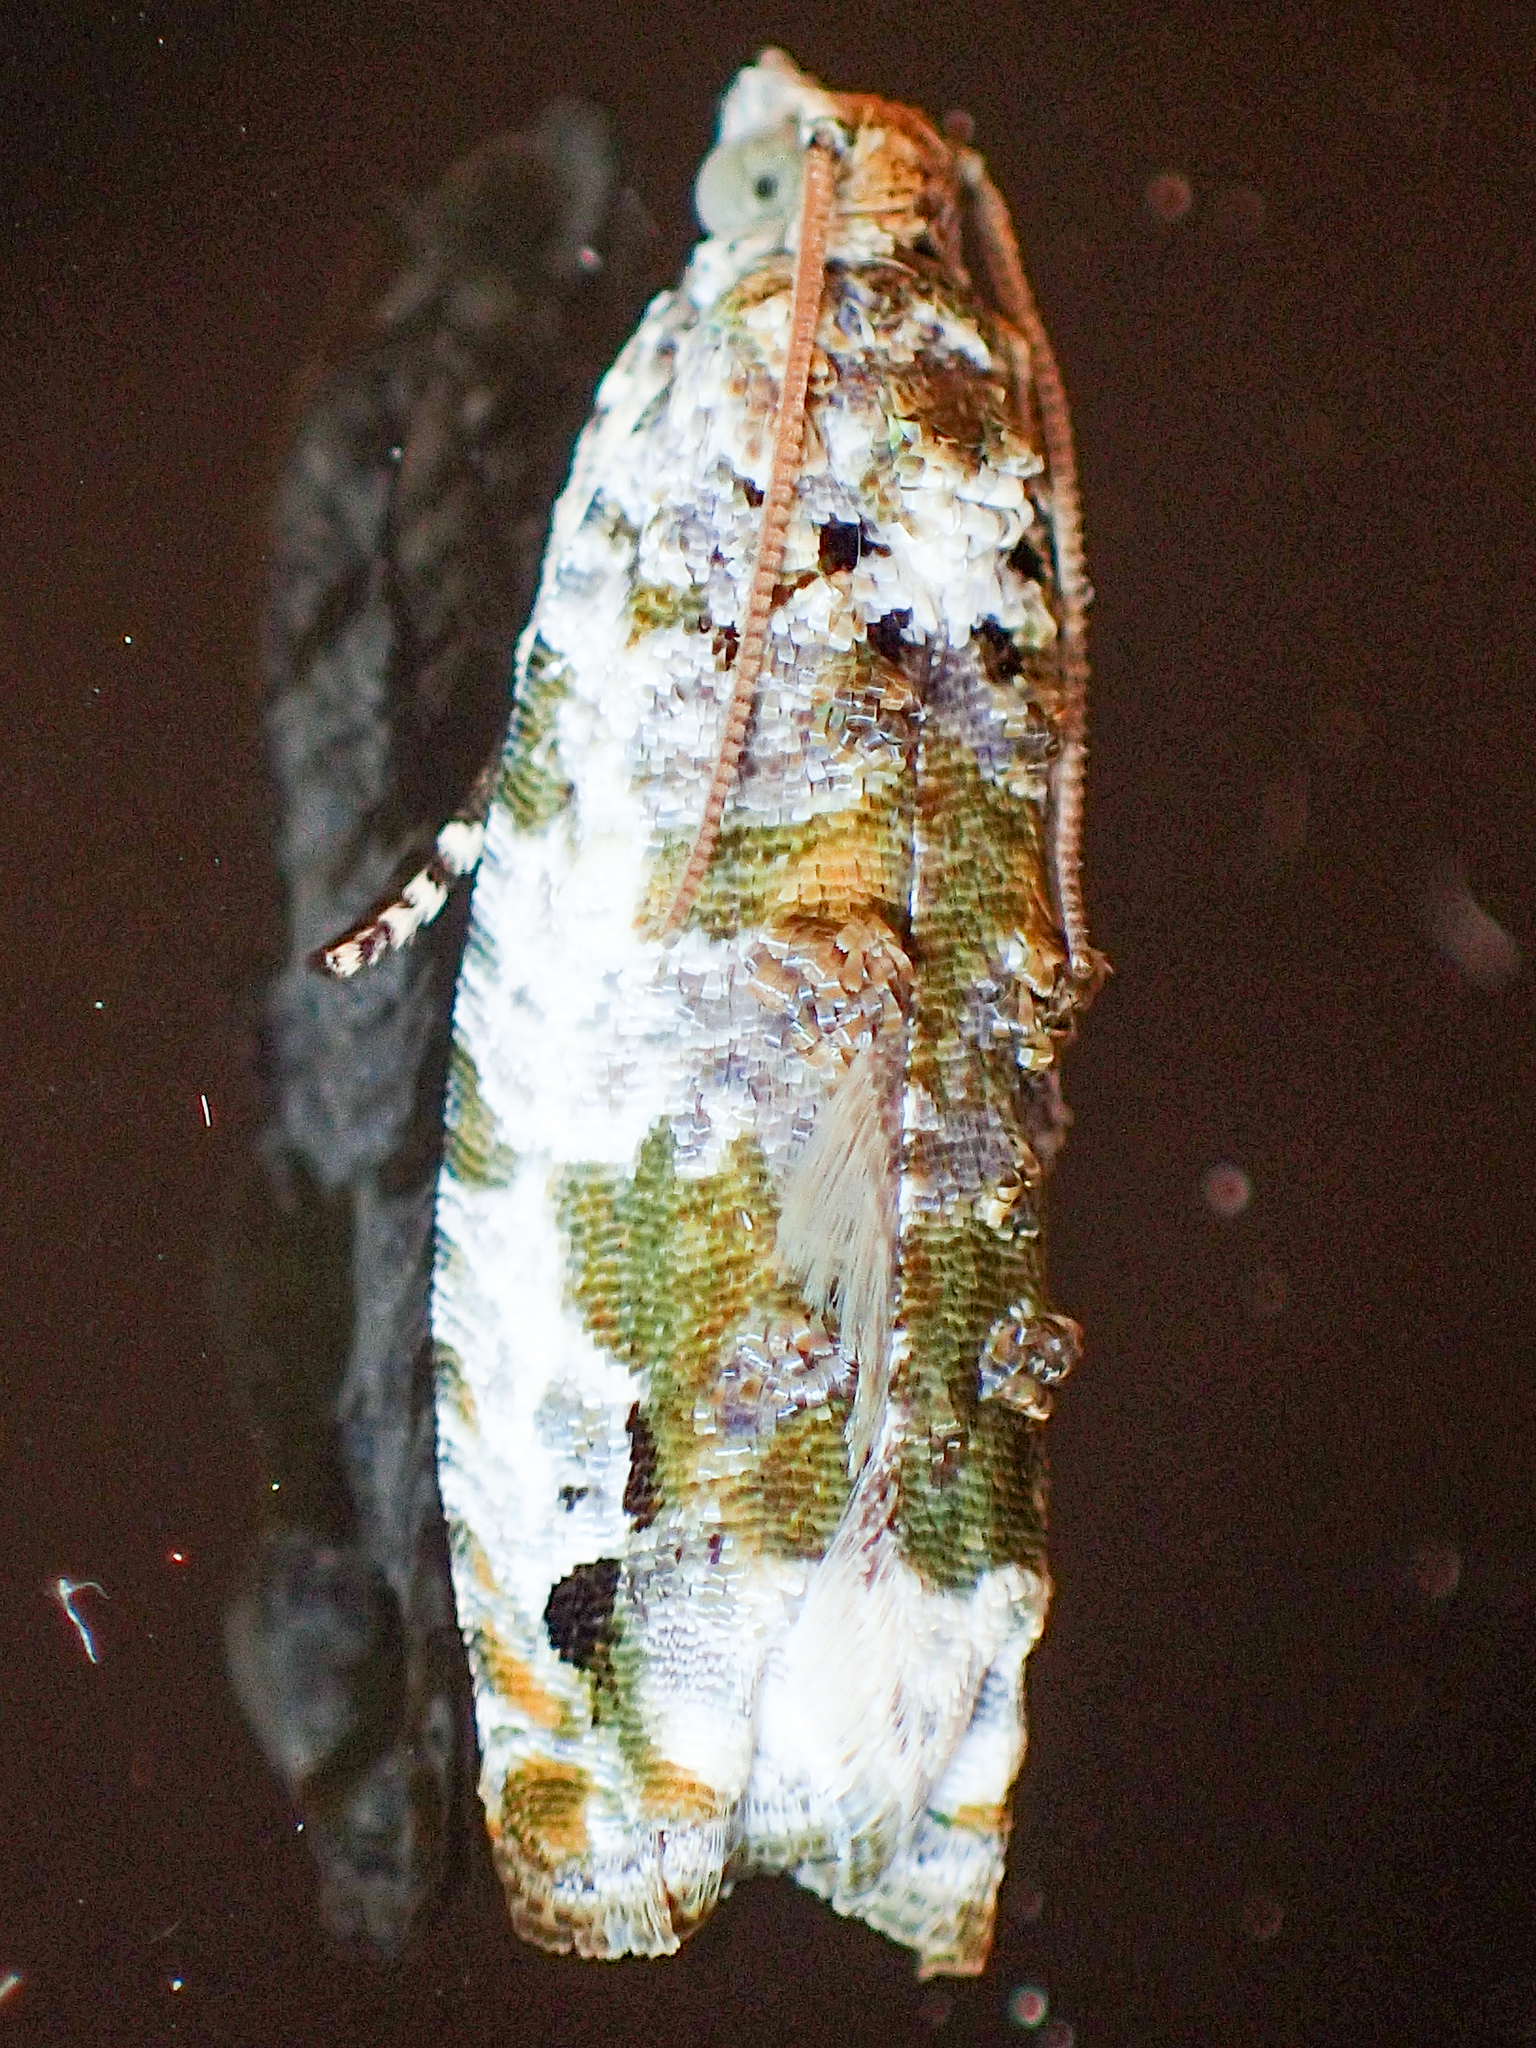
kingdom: Animalia
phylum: Arthropoda
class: Insecta
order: Lepidoptera
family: Tortricidae
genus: Proteoteras
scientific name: Proteoteras naracana
